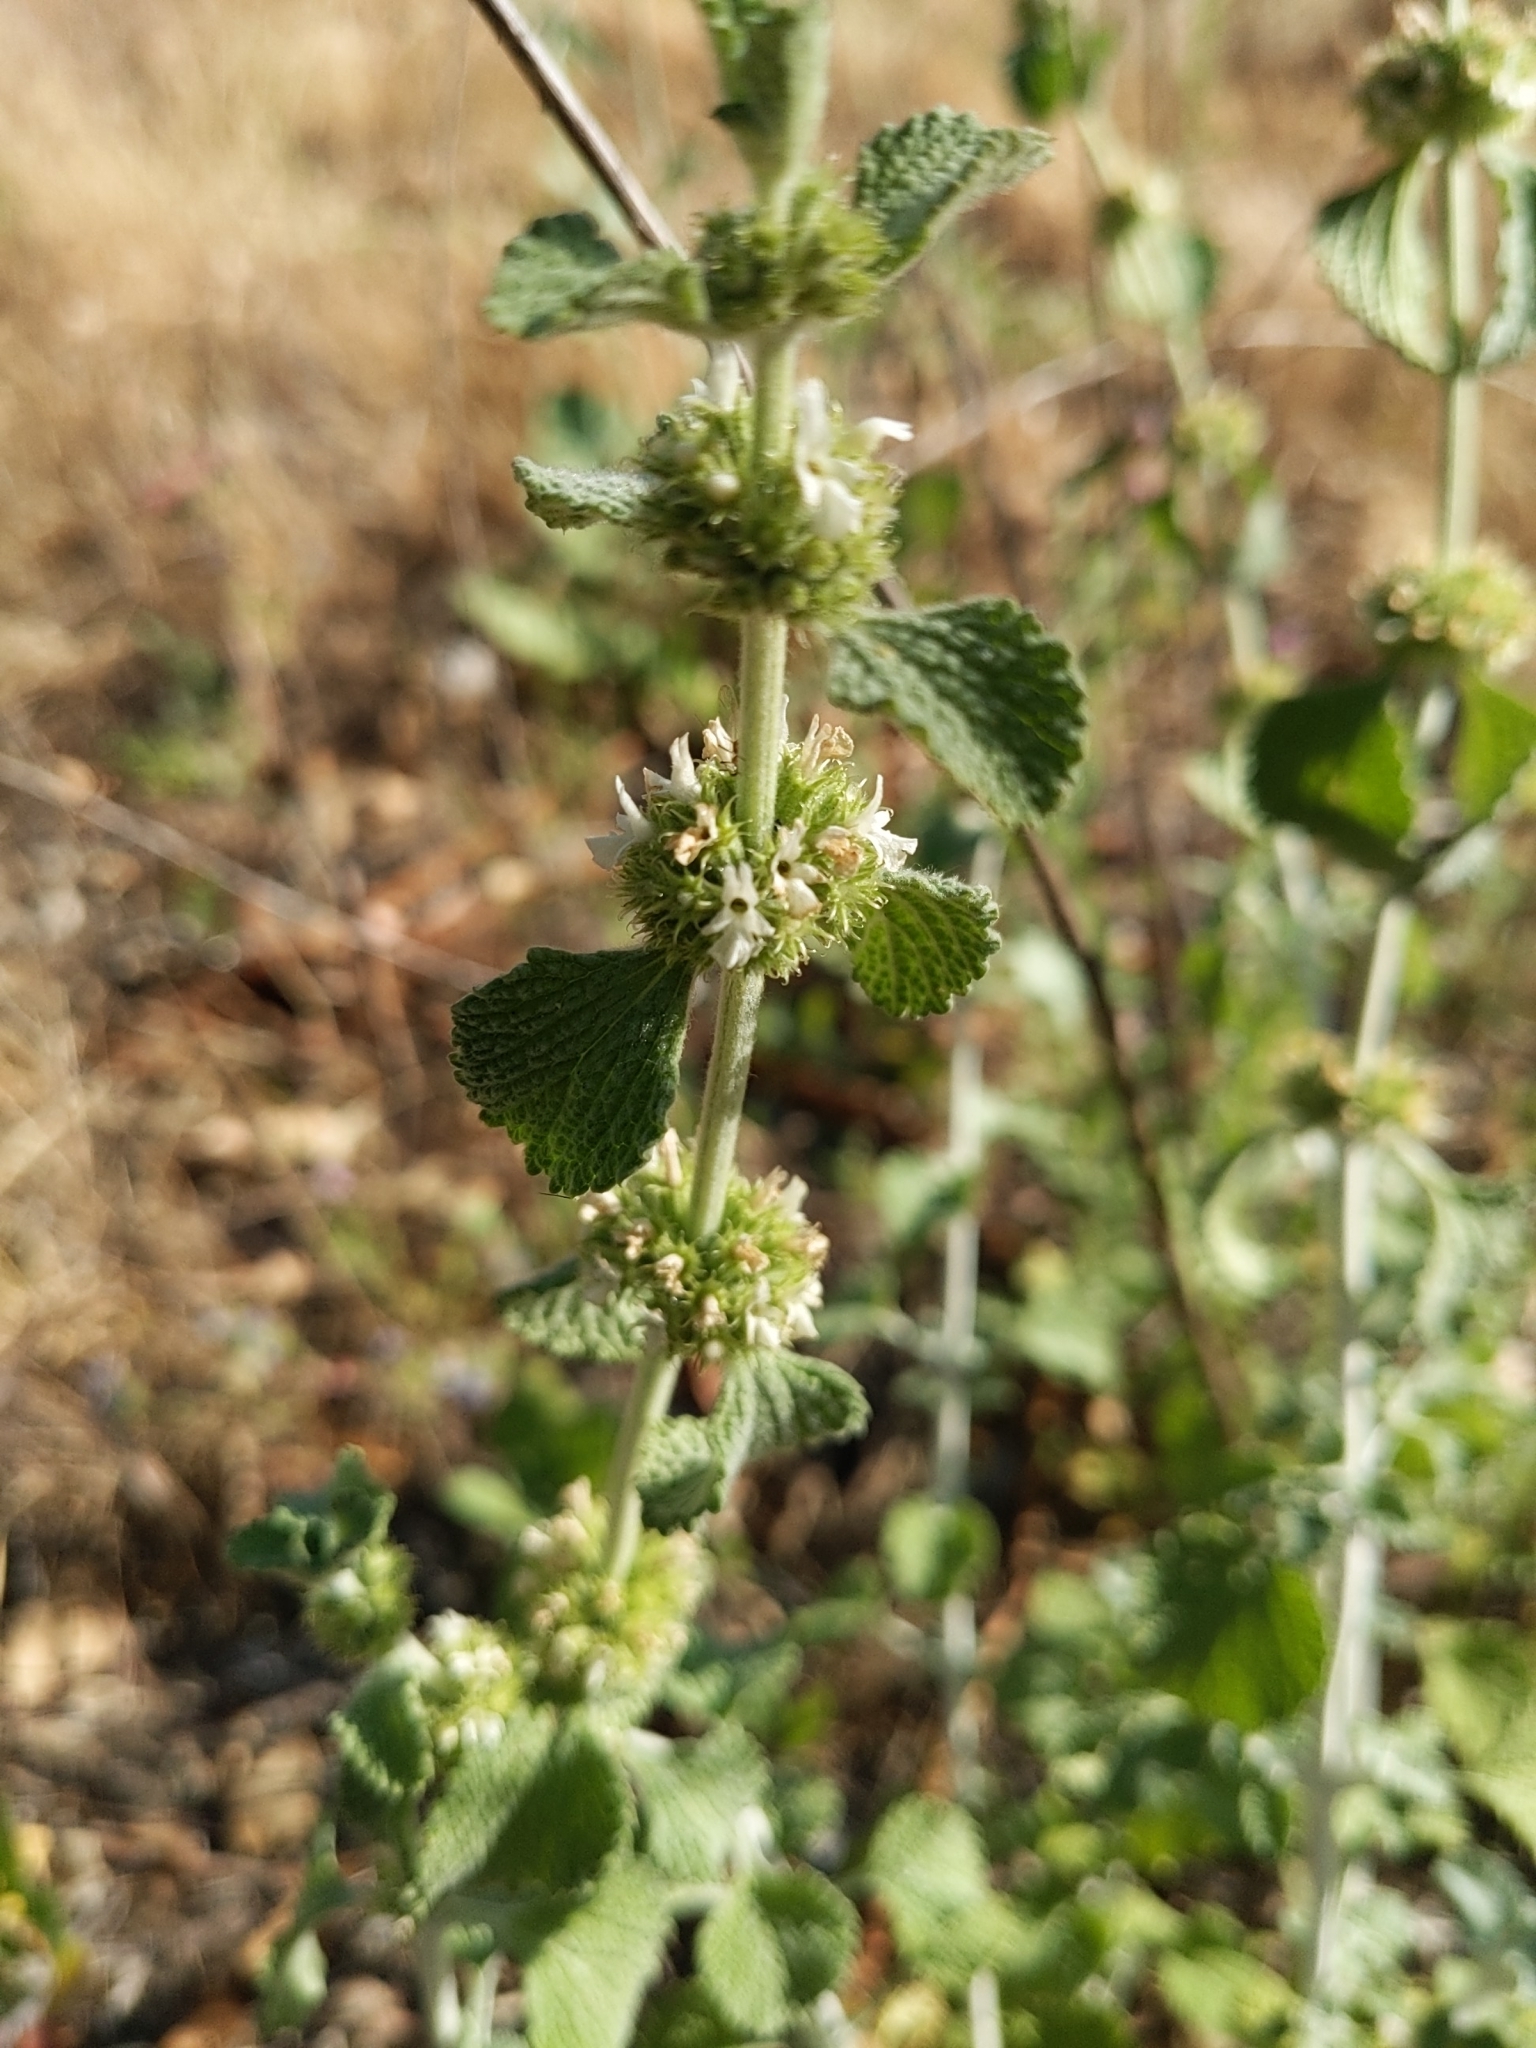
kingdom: Plantae
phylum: Tracheophyta
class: Magnoliopsida
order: Lamiales
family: Lamiaceae
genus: Marrubium
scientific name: Marrubium vulgare
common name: Horehound
